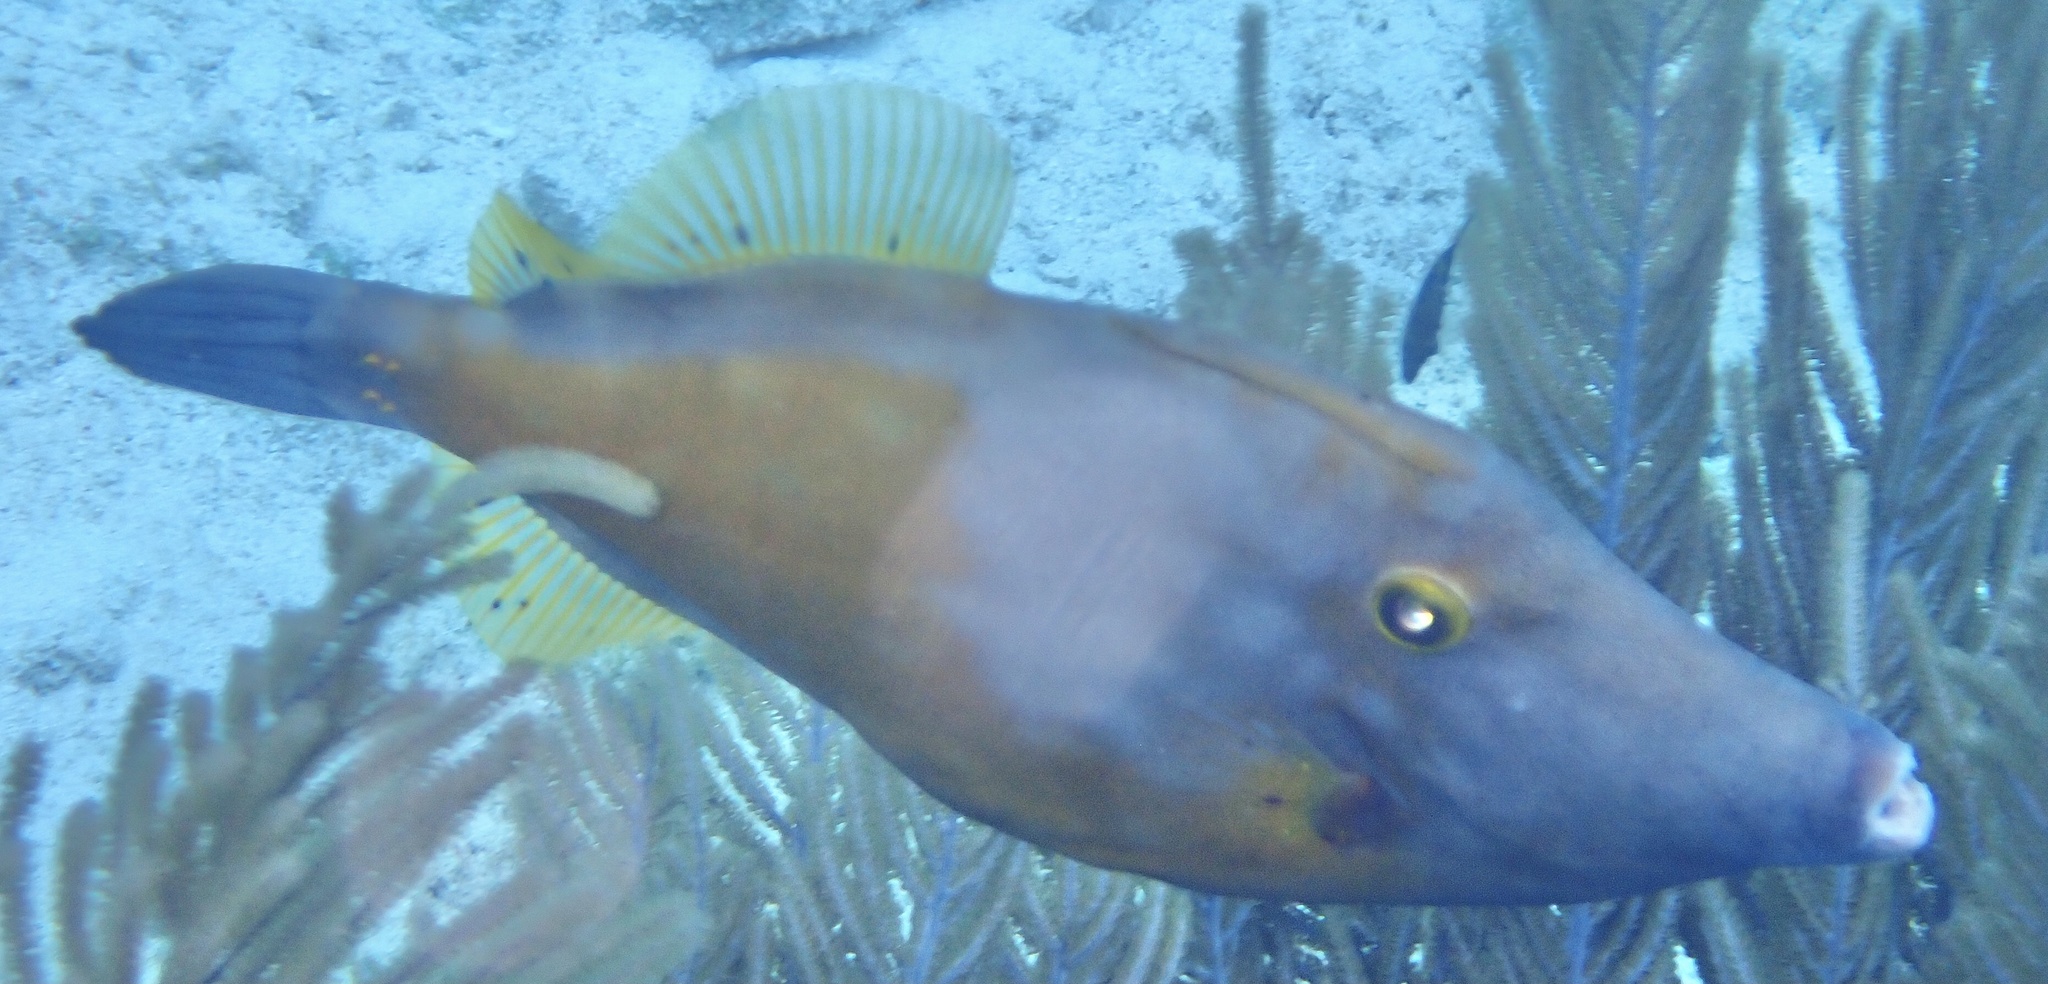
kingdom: Animalia
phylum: Chordata
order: Tetraodontiformes
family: Monacanthidae
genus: Cantherhines
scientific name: Cantherhines macrocerus
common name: Whitespotted filefish
